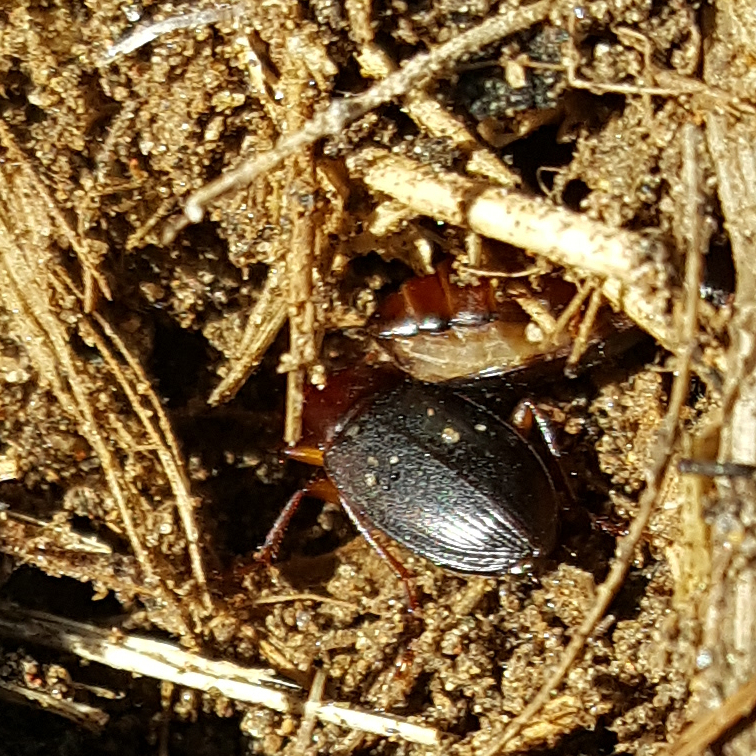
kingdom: Animalia
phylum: Arthropoda
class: Insecta
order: Coleoptera
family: Carabidae
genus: Calathus
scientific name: Calathus ruficollis
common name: Red-collared harp ground beetle
